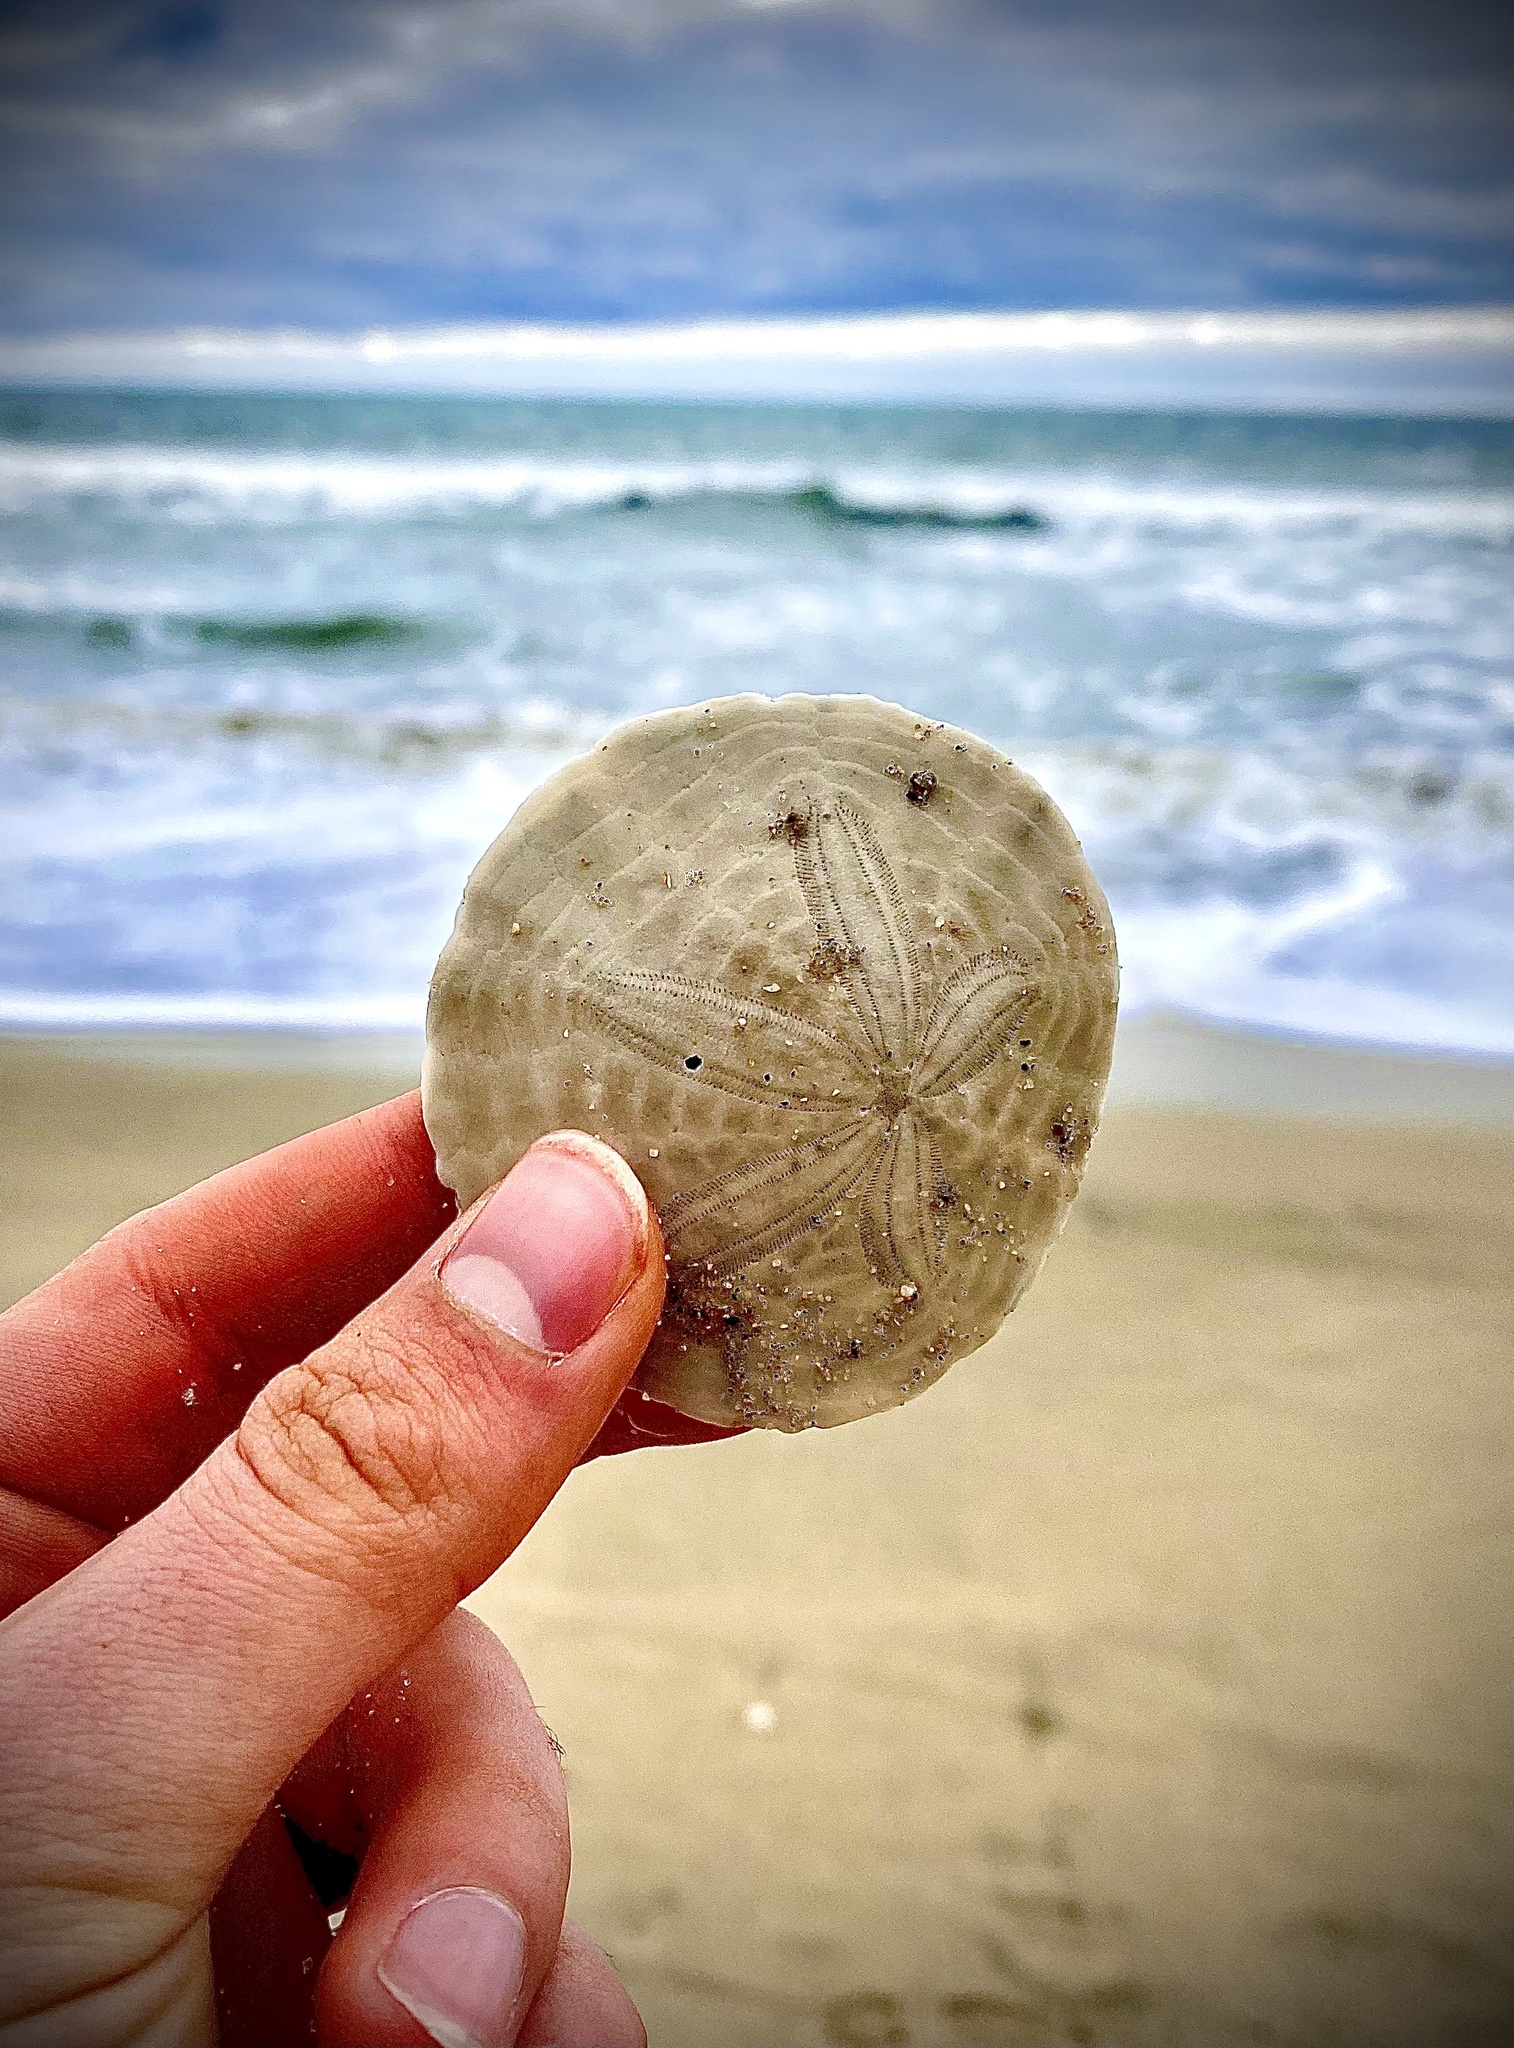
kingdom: Animalia
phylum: Echinodermata
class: Echinoidea
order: Echinolampadacea
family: Dendrasteridae
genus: Dendraster
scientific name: Dendraster excentricus
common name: Eccentric sand dollar sea urchin
